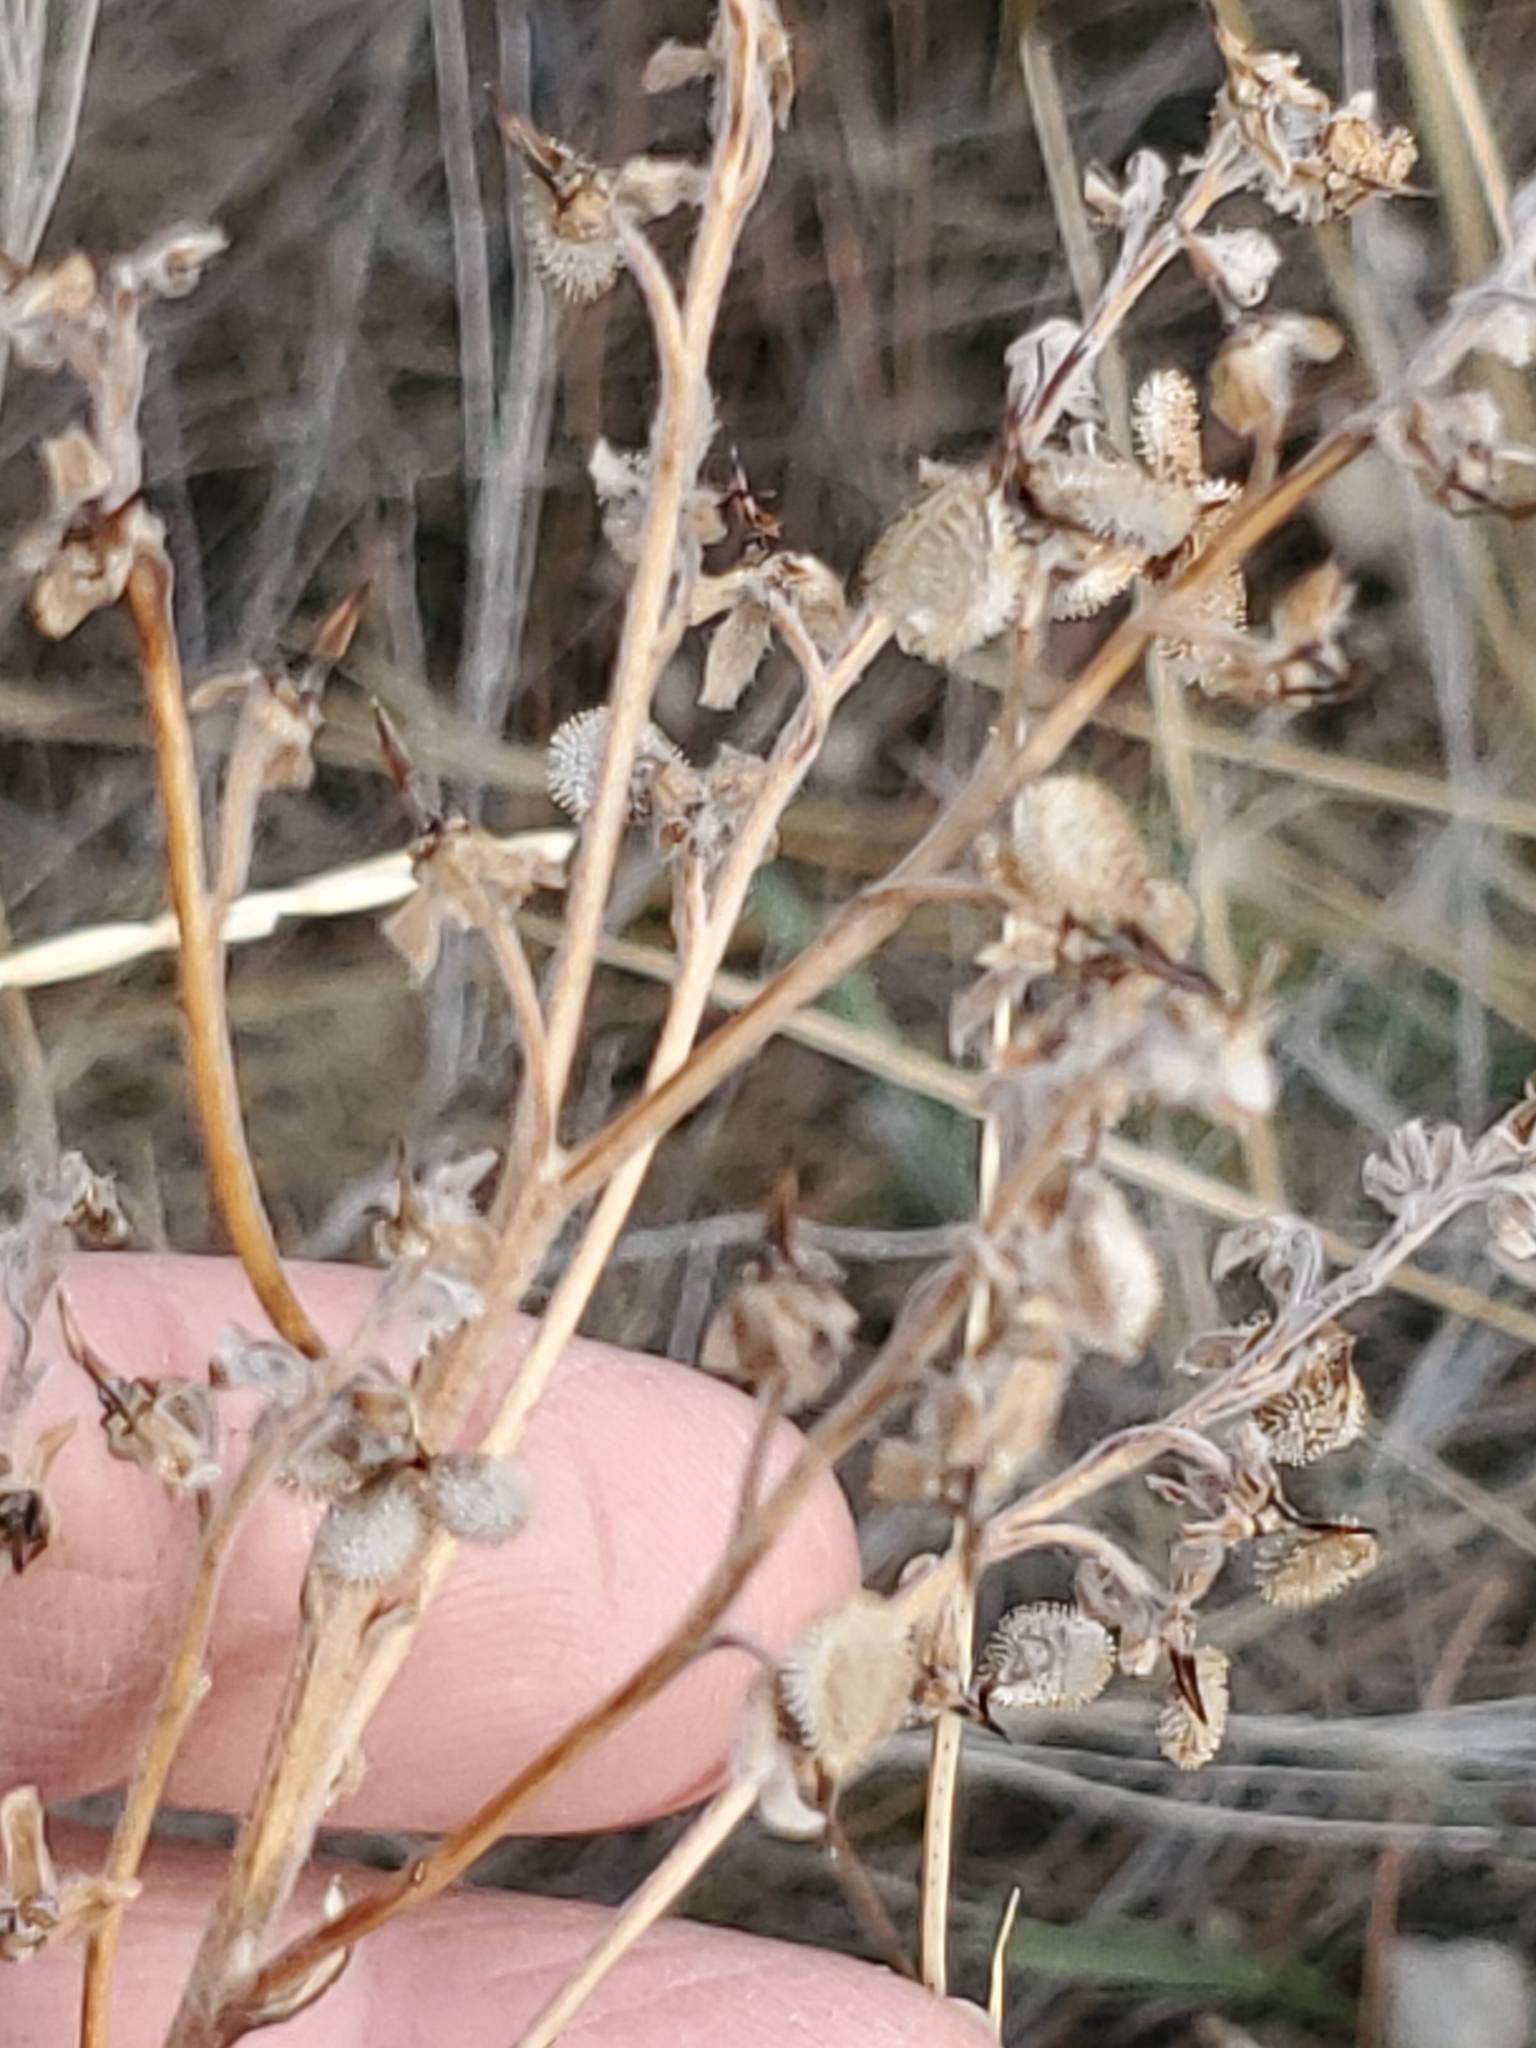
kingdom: Plantae
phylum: Tracheophyta
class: Magnoliopsida
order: Boraginales
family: Boraginaceae
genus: Cynoglossum
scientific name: Cynoglossum officinale
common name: Hound's-tongue
